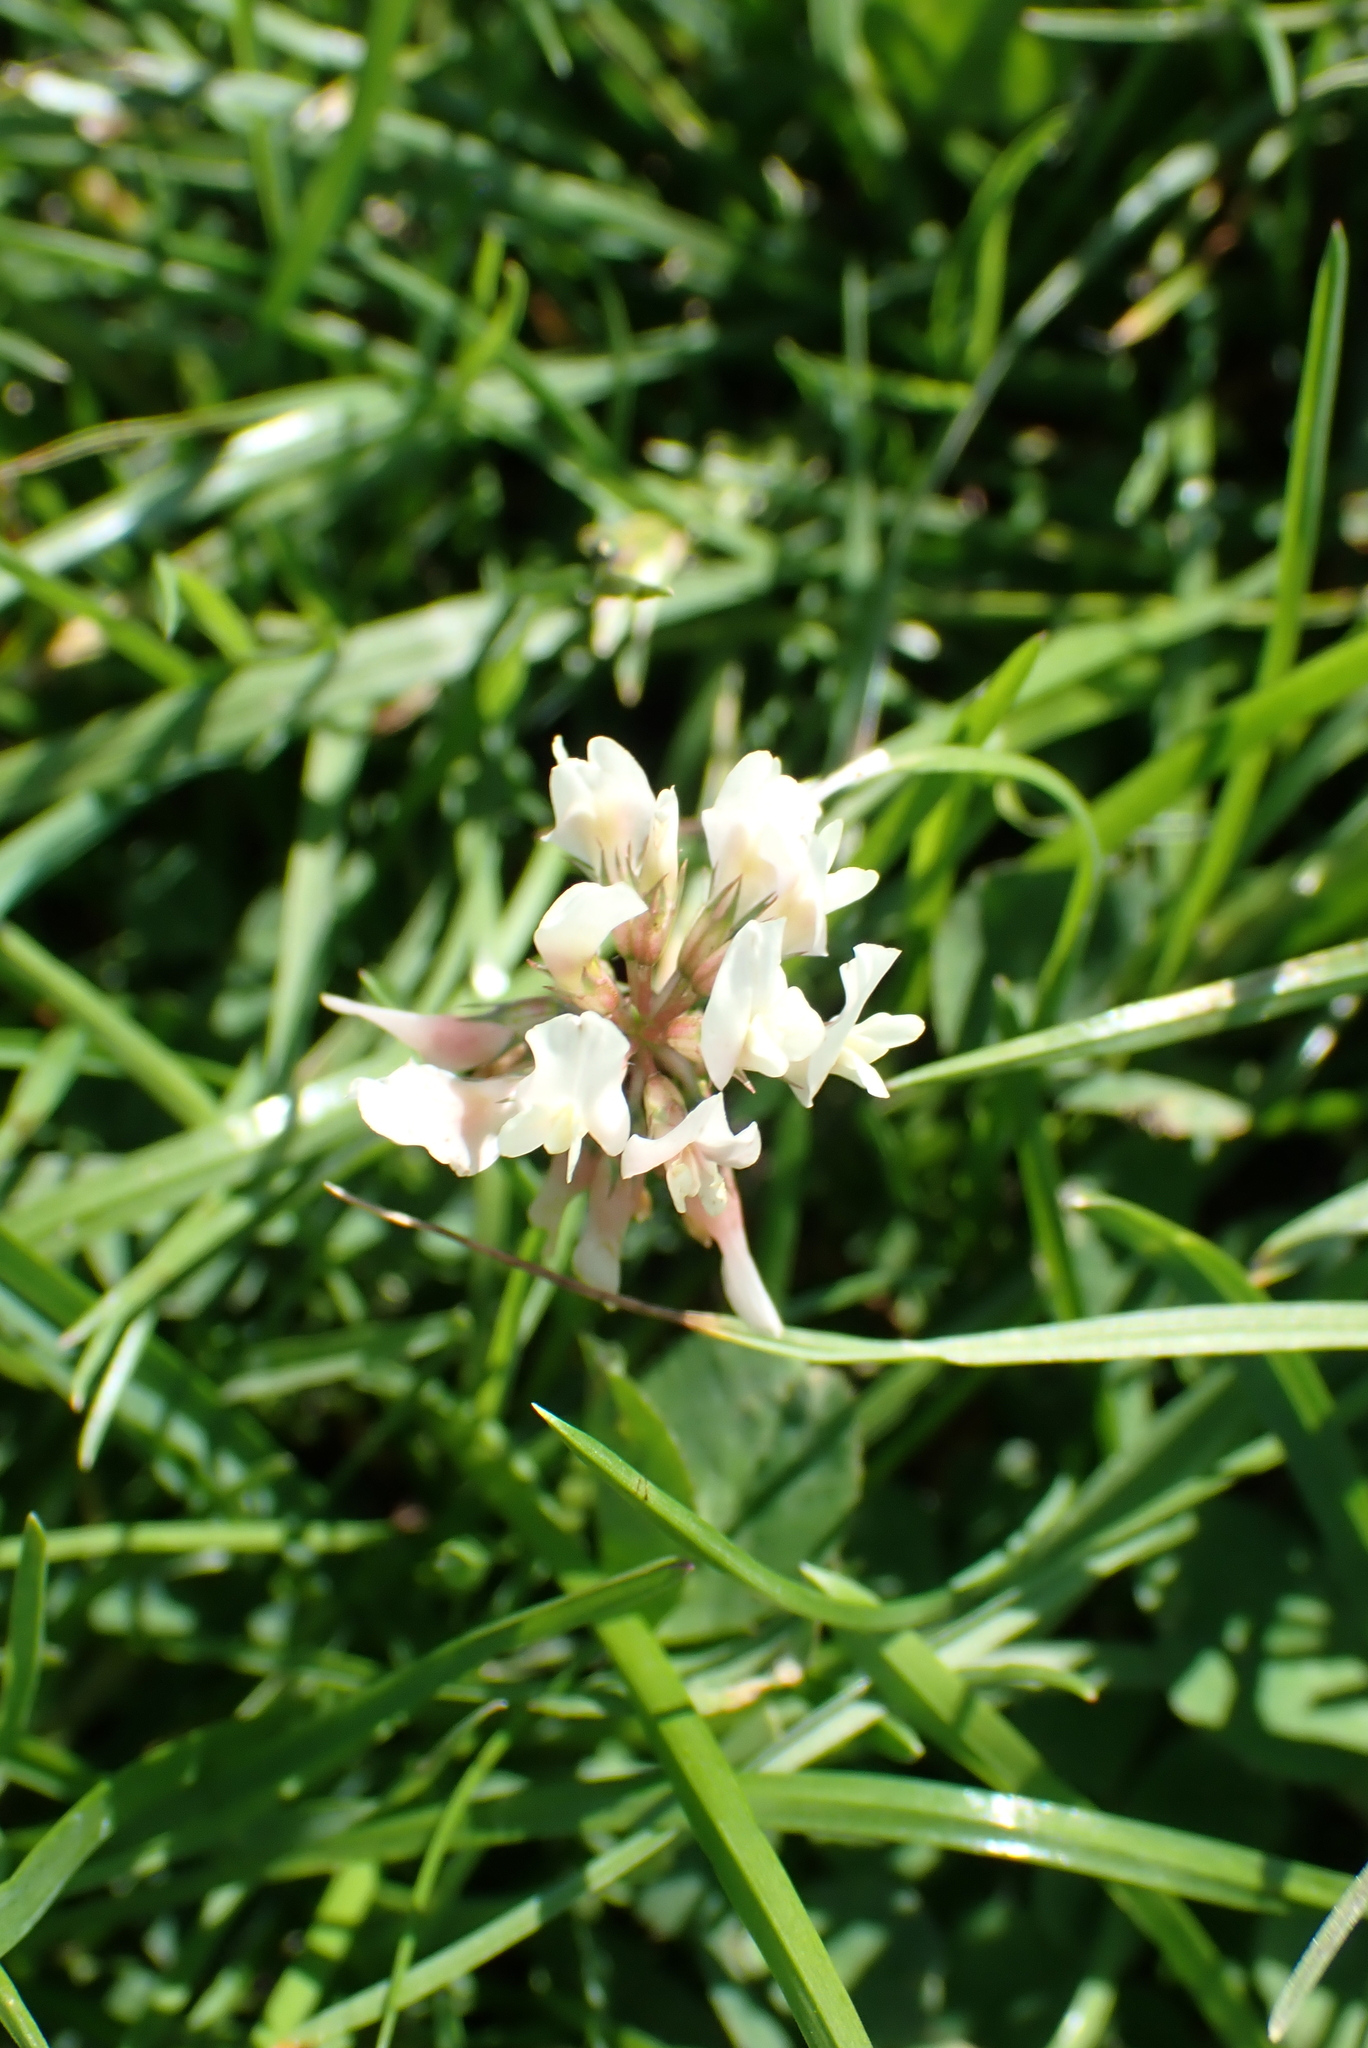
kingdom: Plantae
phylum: Tracheophyta
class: Magnoliopsida
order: Fabales
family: Fabaceae
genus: Trifolium
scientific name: Trifolium repens
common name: White clover
